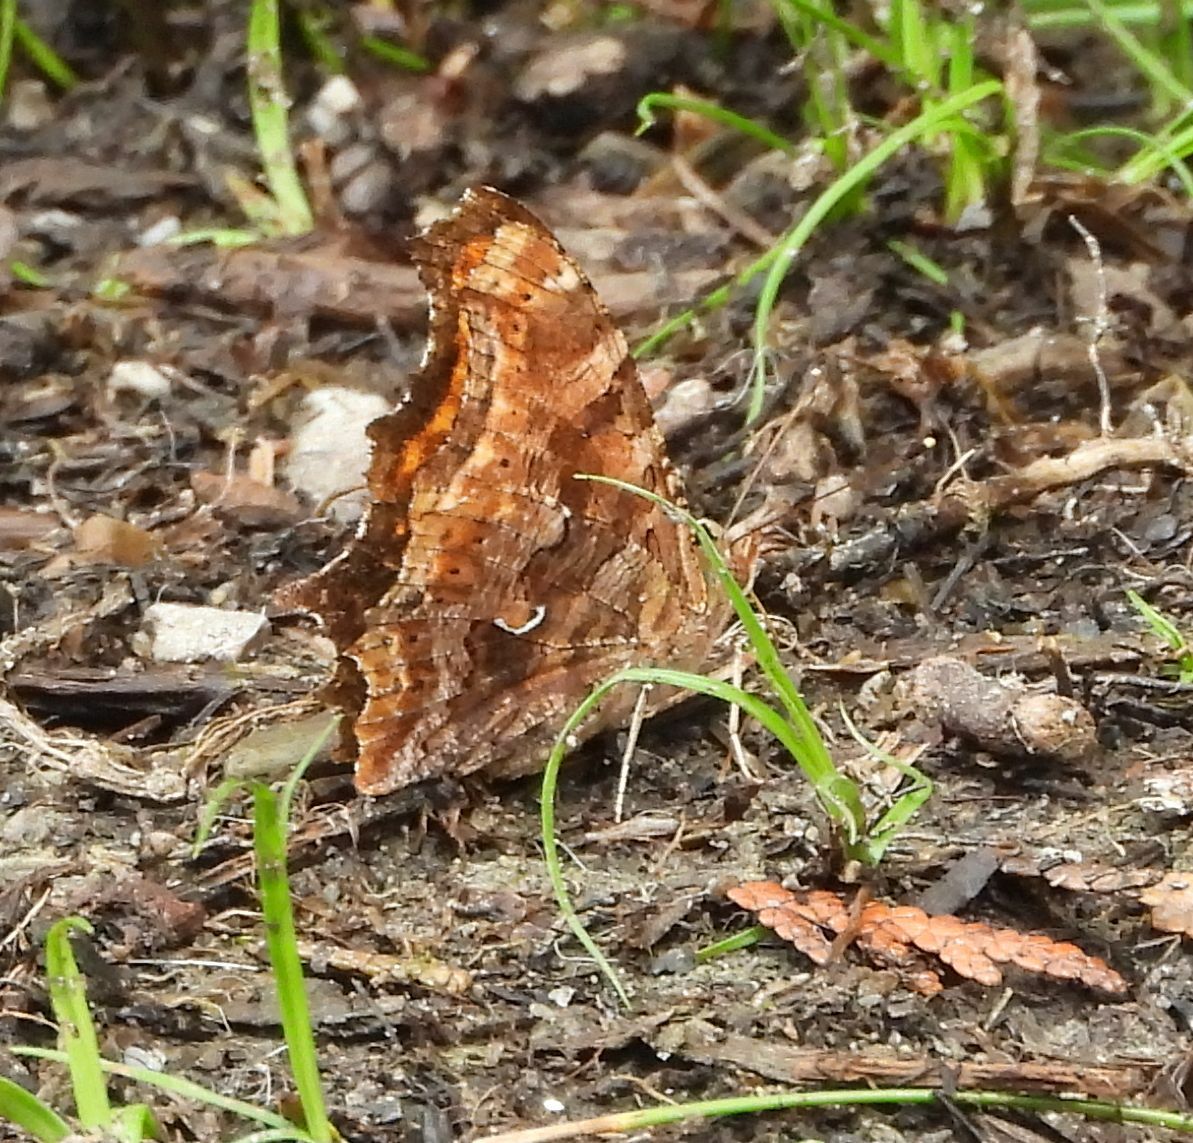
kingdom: Animalia
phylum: Arthropoda
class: Insecta
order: Lepidoptera
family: Nymphalidae
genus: Polygonia
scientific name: Polygonia comma
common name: Eastern comma
